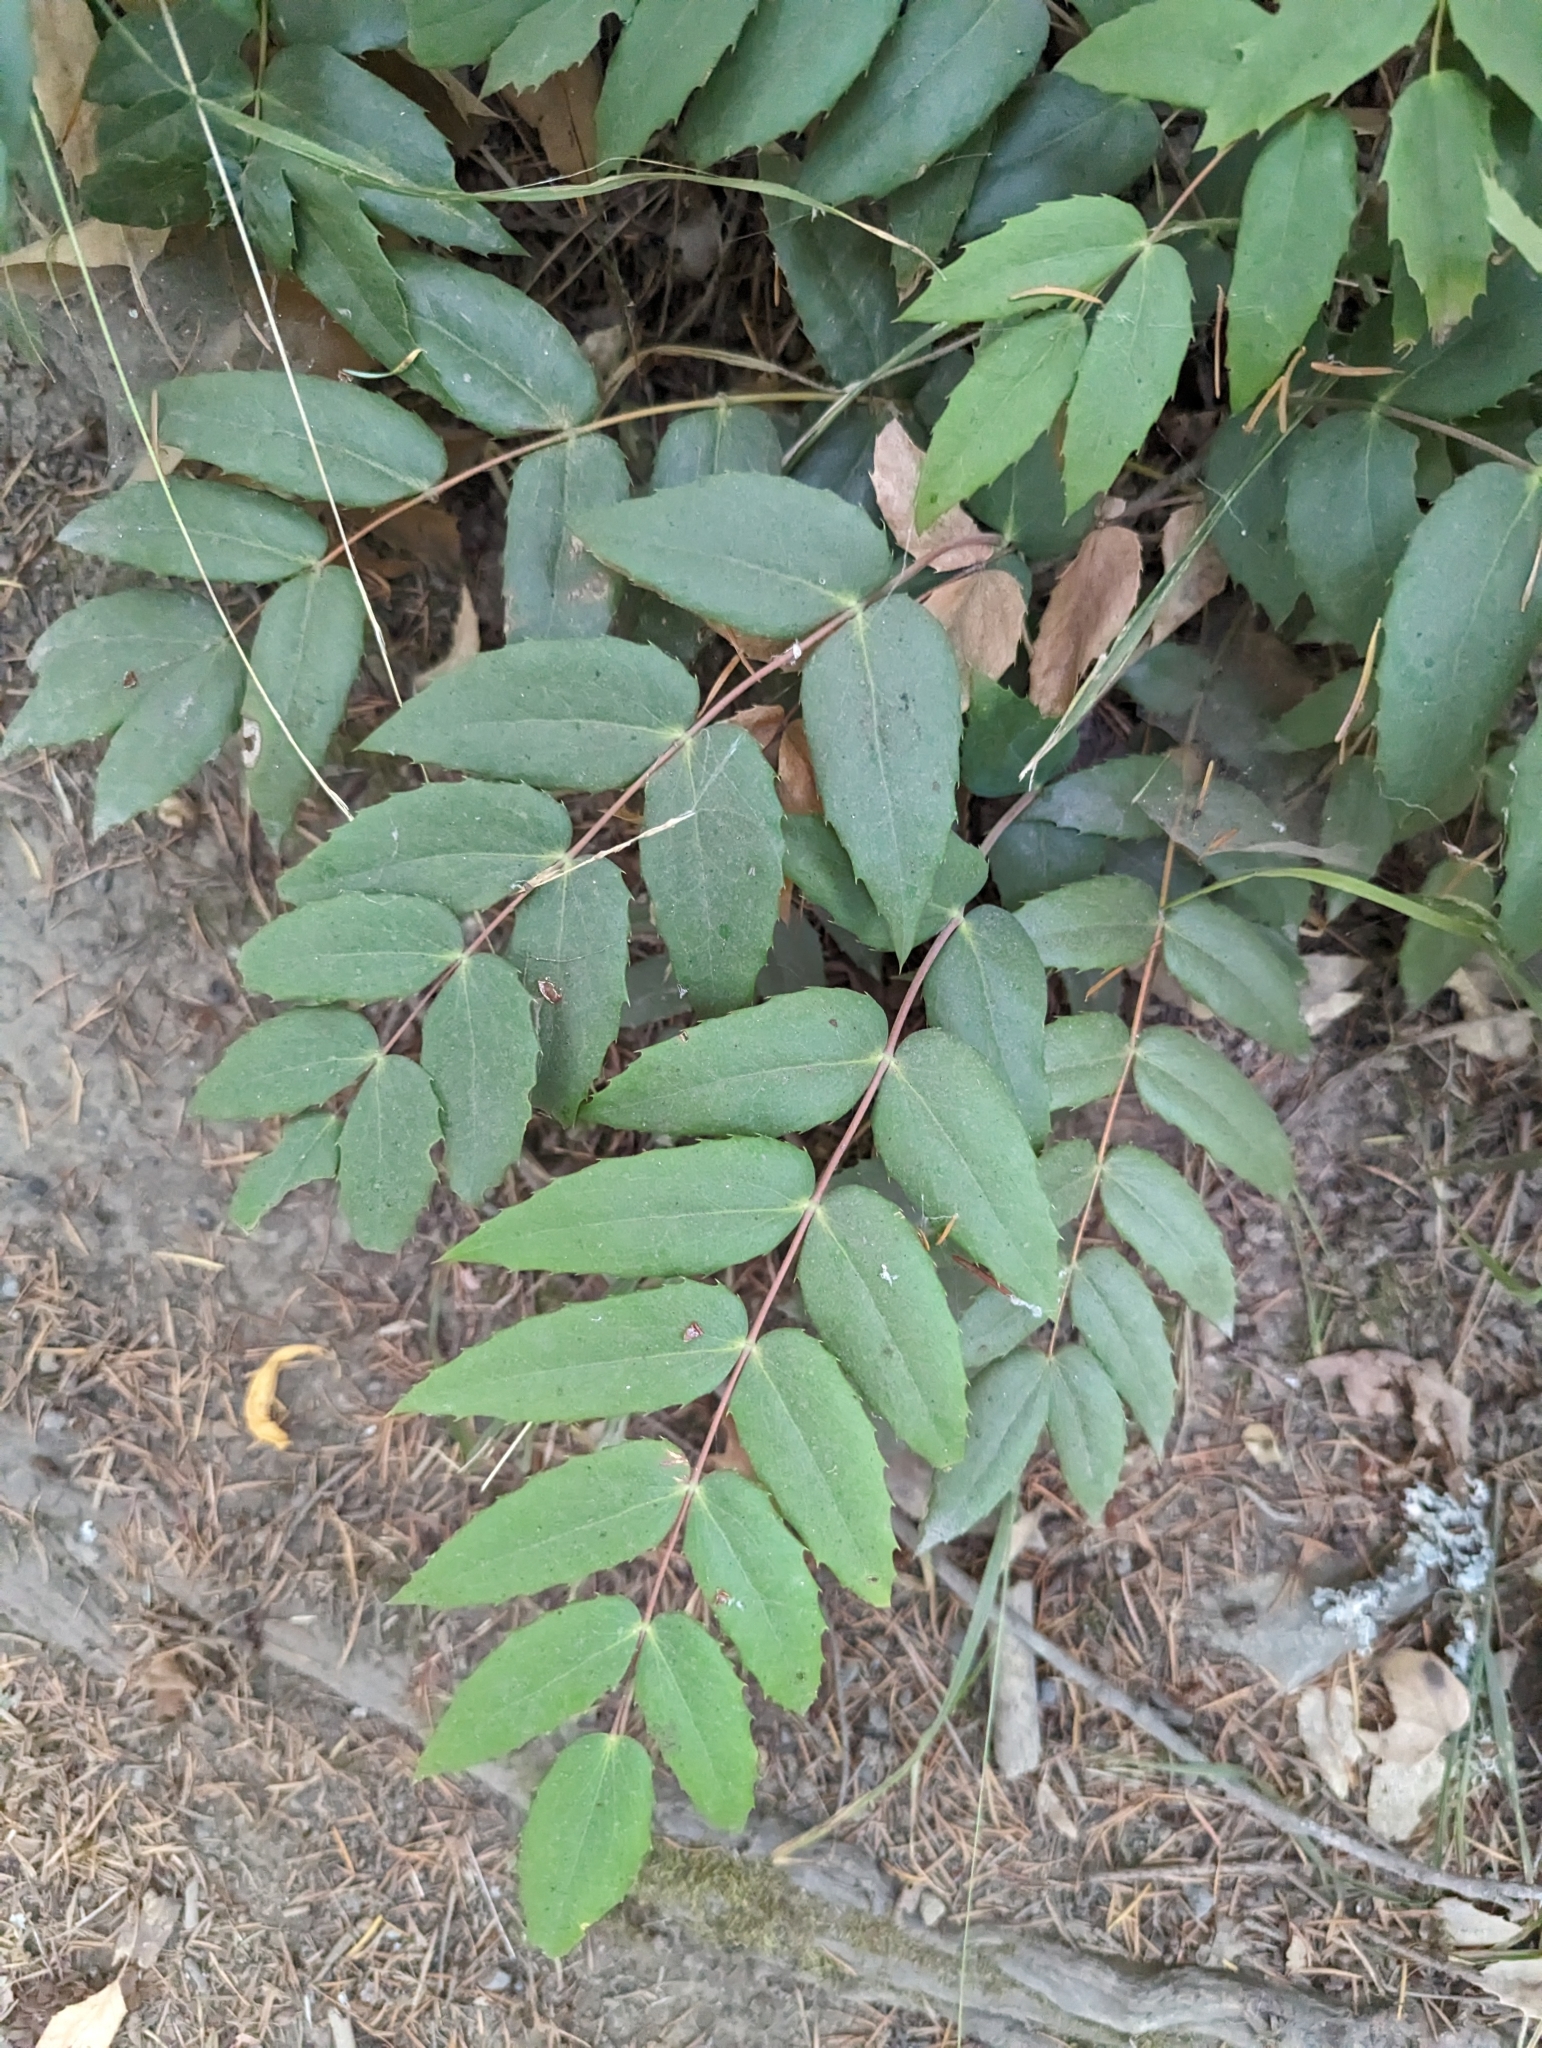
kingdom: Plantae
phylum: Tracheophyta
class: Magnoliopsida
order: Ranunculales
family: Berberidaceae
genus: Mahonia
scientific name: Mahonia nervosa
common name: Cascade oregon-grape
